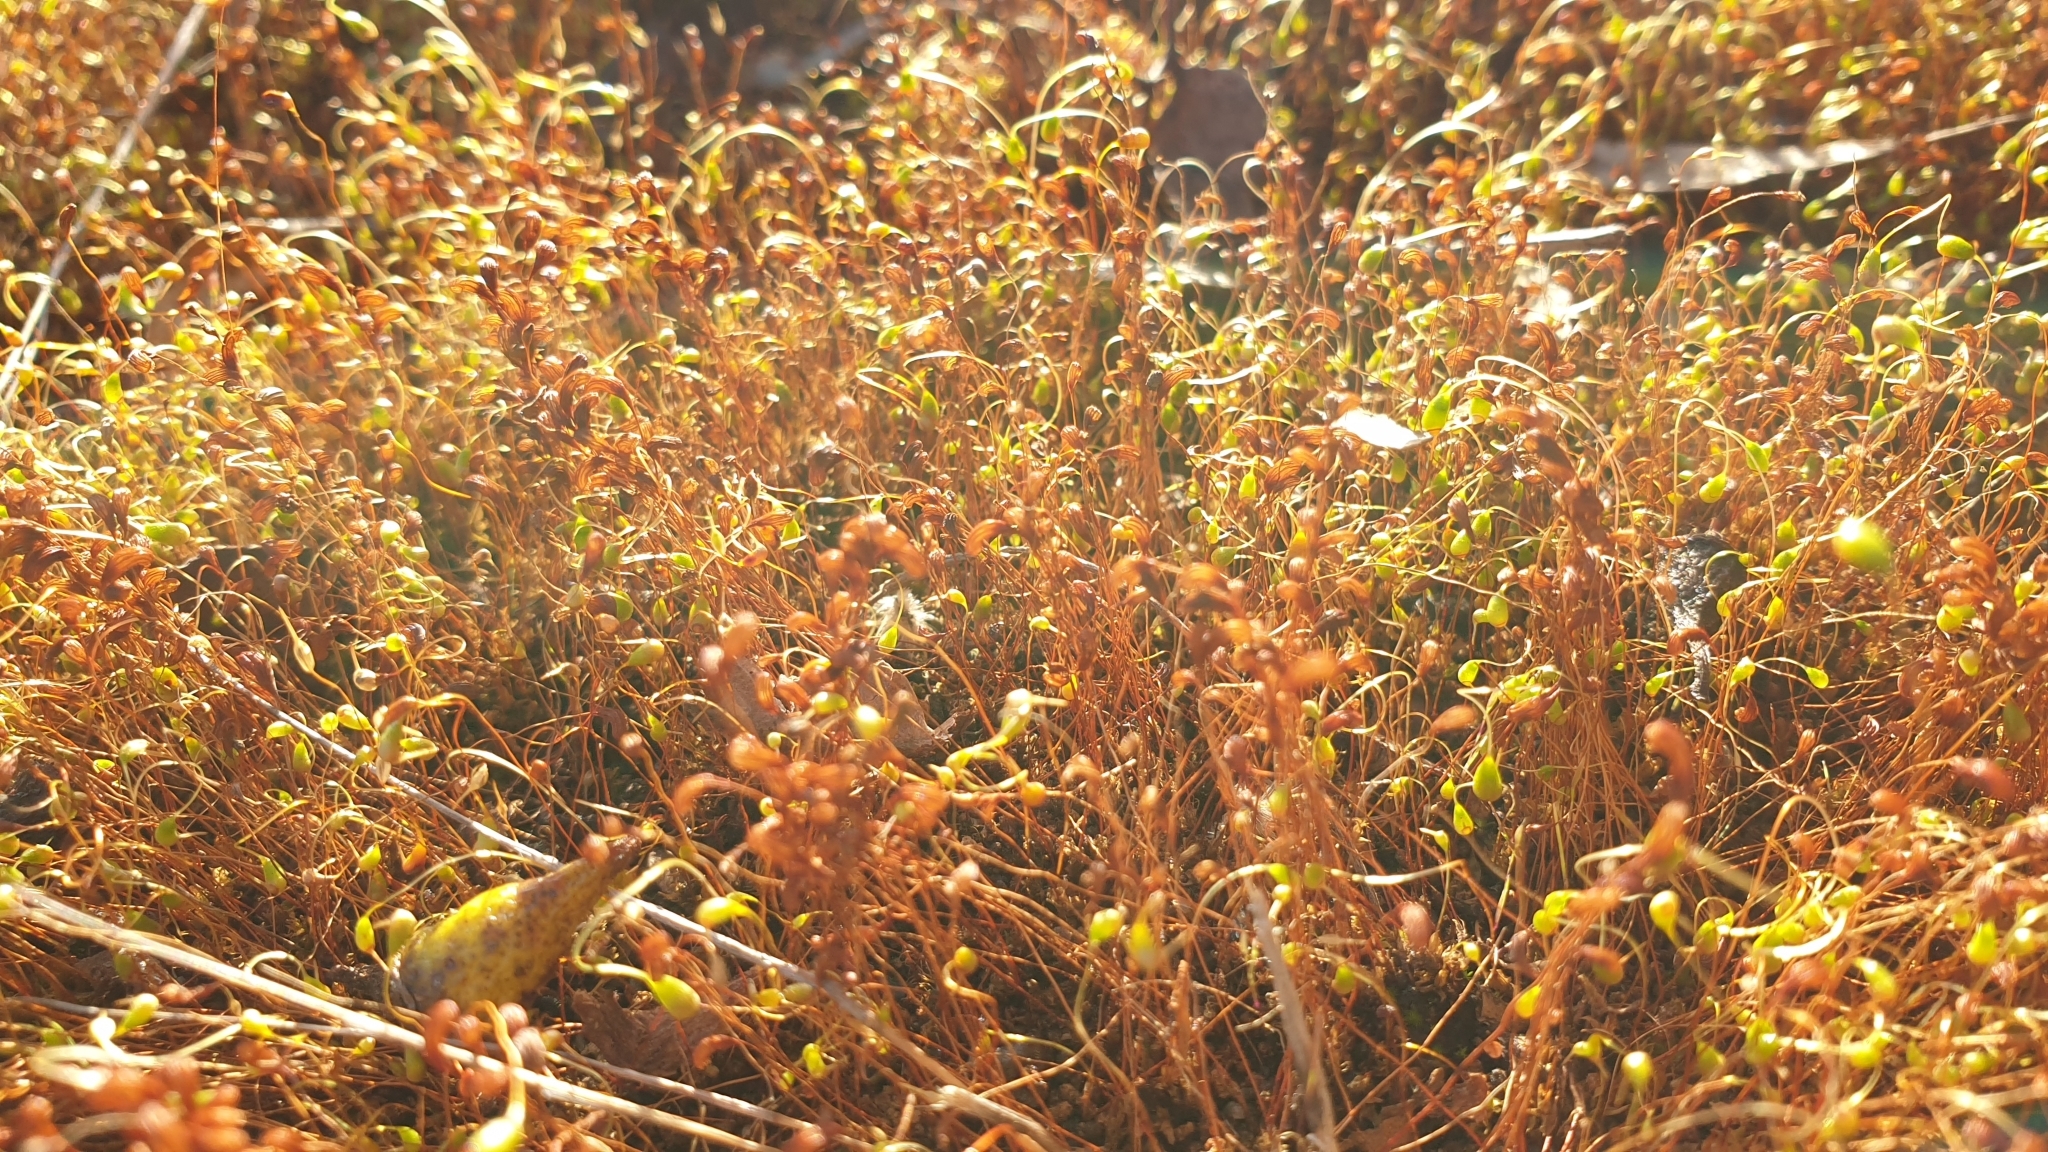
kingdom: Plantae
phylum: Bryophyta
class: Bryopsida
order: Funariales
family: Funariaceae
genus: Funaria
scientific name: Funaria hygrometrica
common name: Common cord moss
